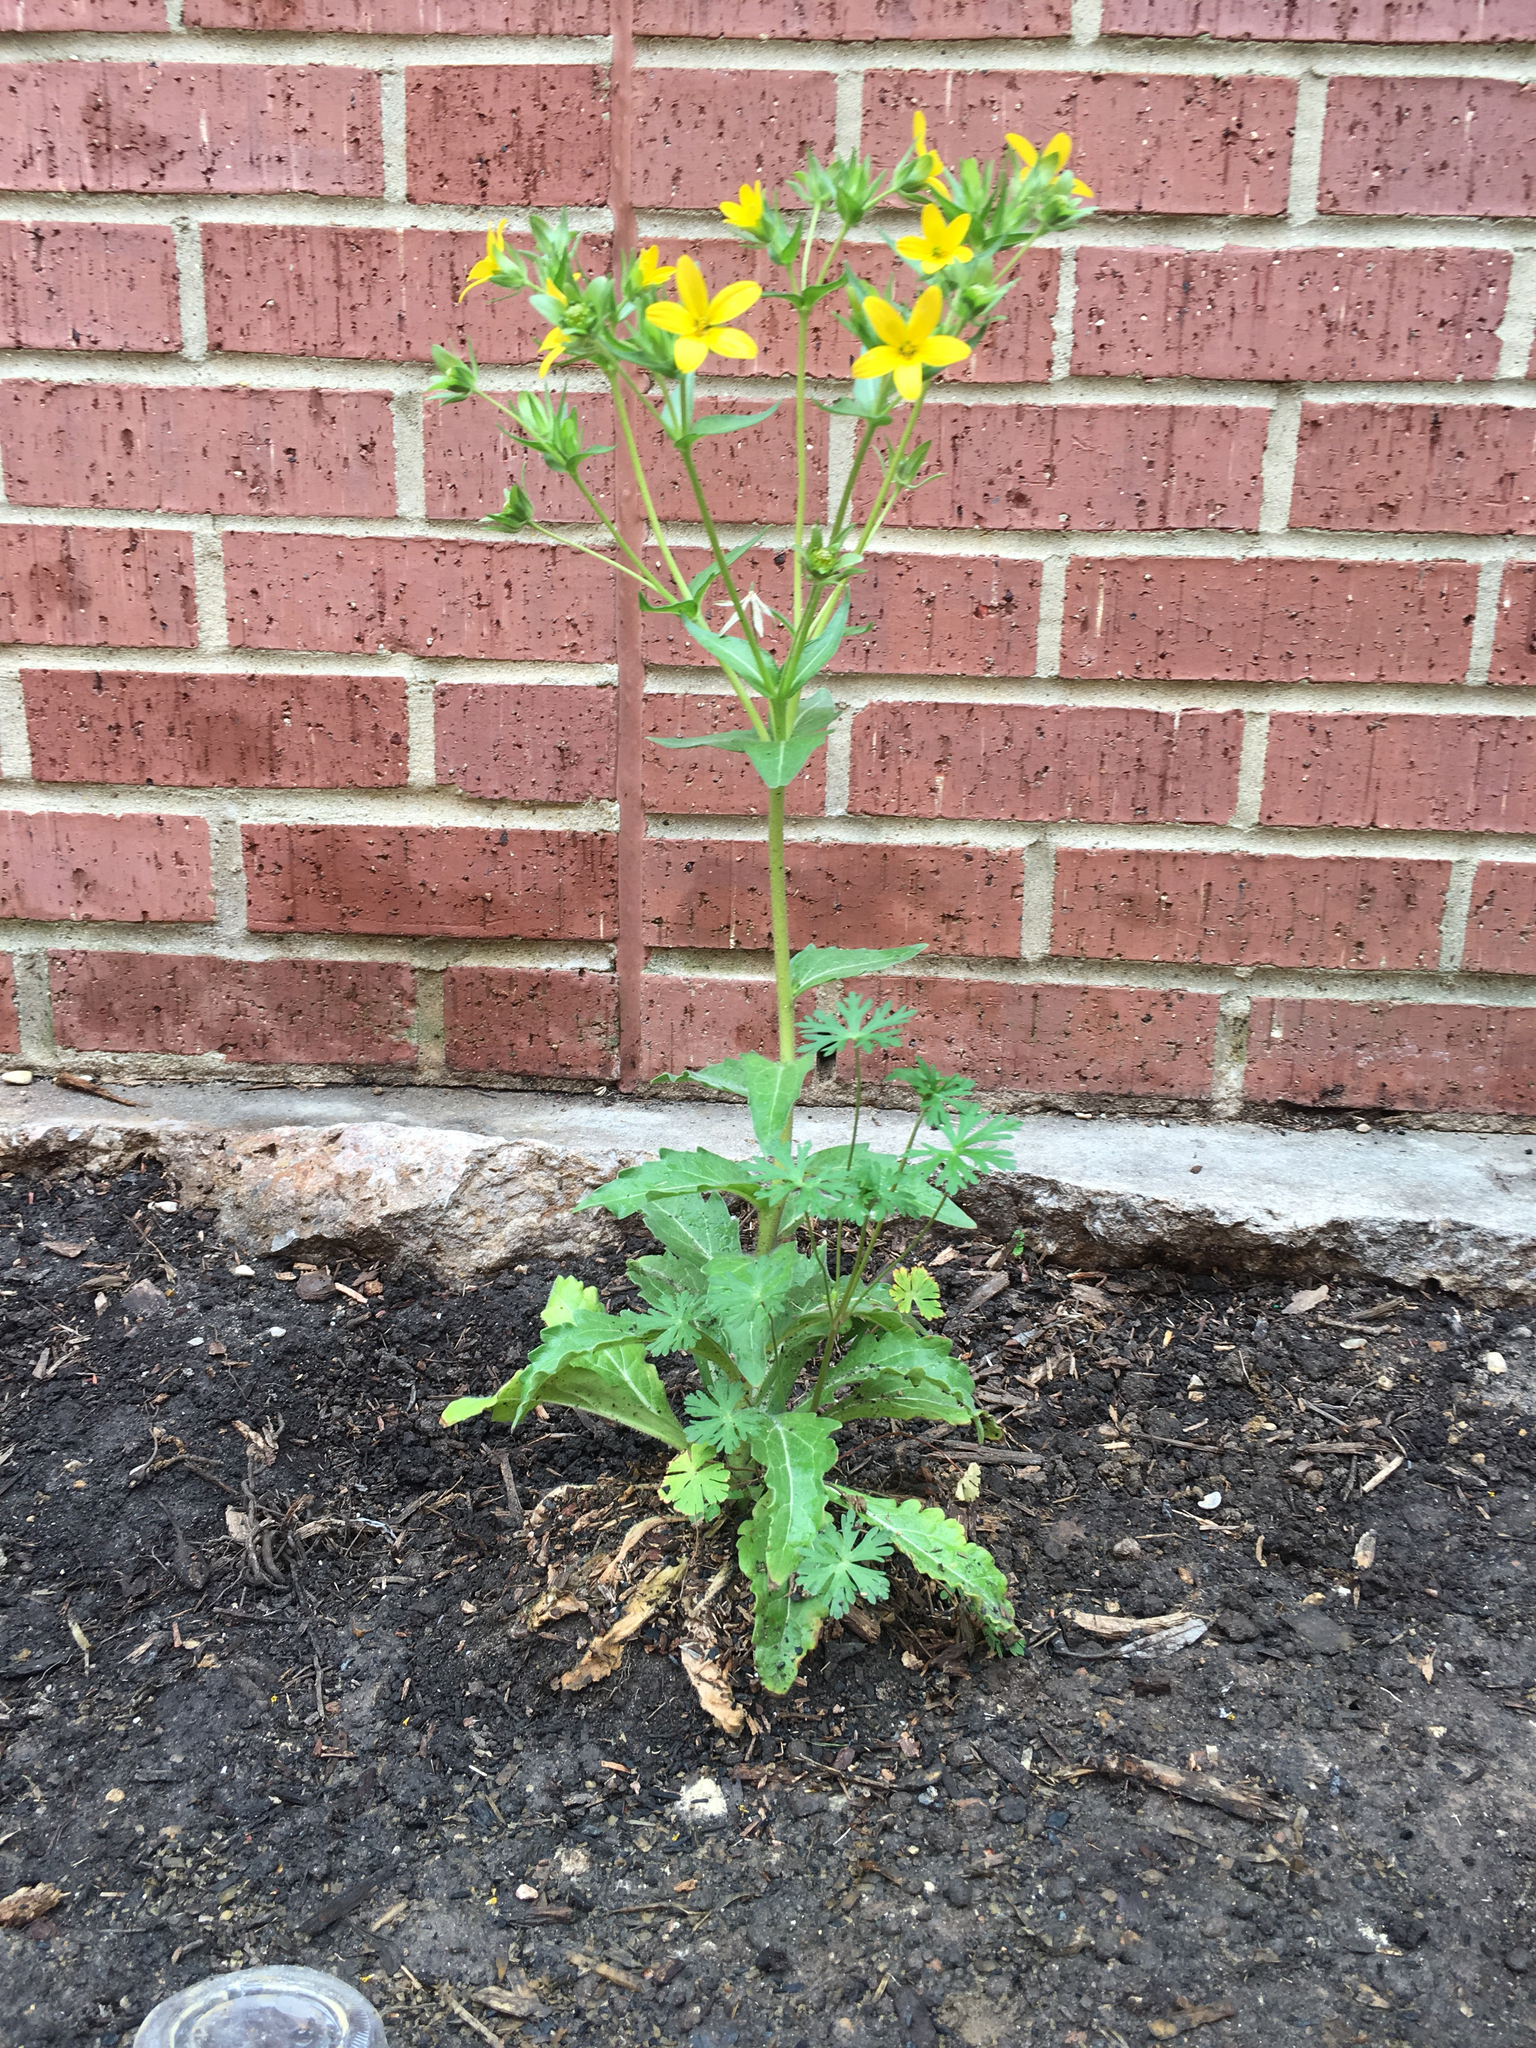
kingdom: Plantae
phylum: Tracheophyta
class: Magnoliopsida
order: Asterales
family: Asteraceae
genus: Lindheimera
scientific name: Lindheimera texana
